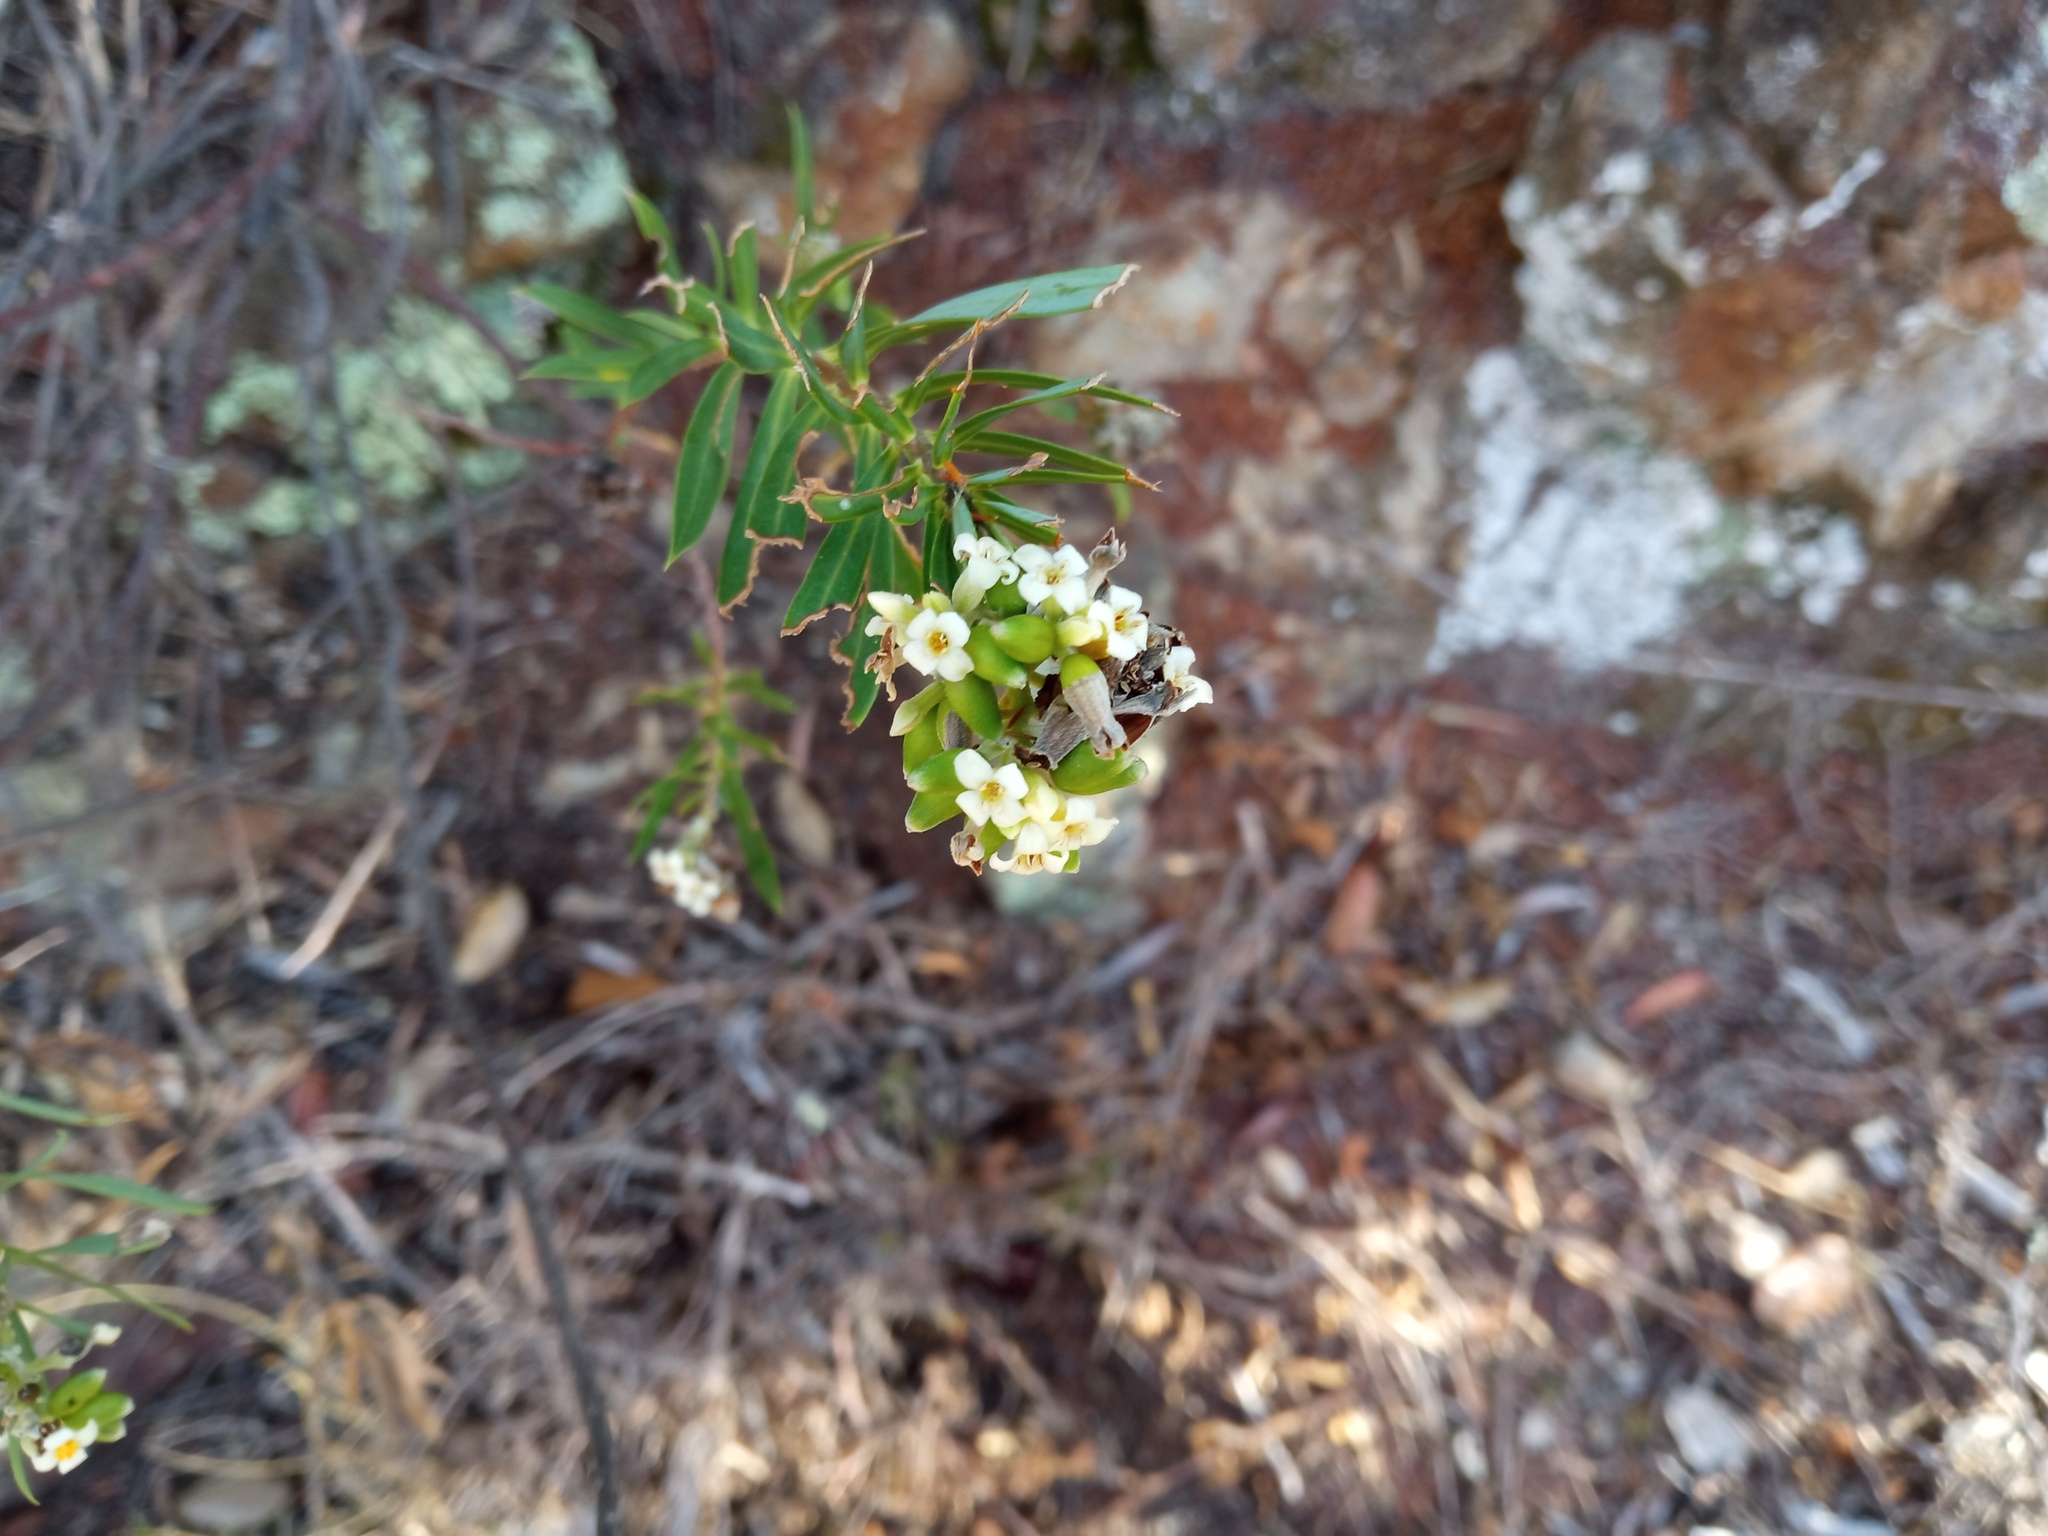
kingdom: Plantae
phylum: Tracheophyta
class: Magnoliopsida
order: Malvales
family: Thymelaeaceae
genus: Daphne
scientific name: Daphne gnidium
